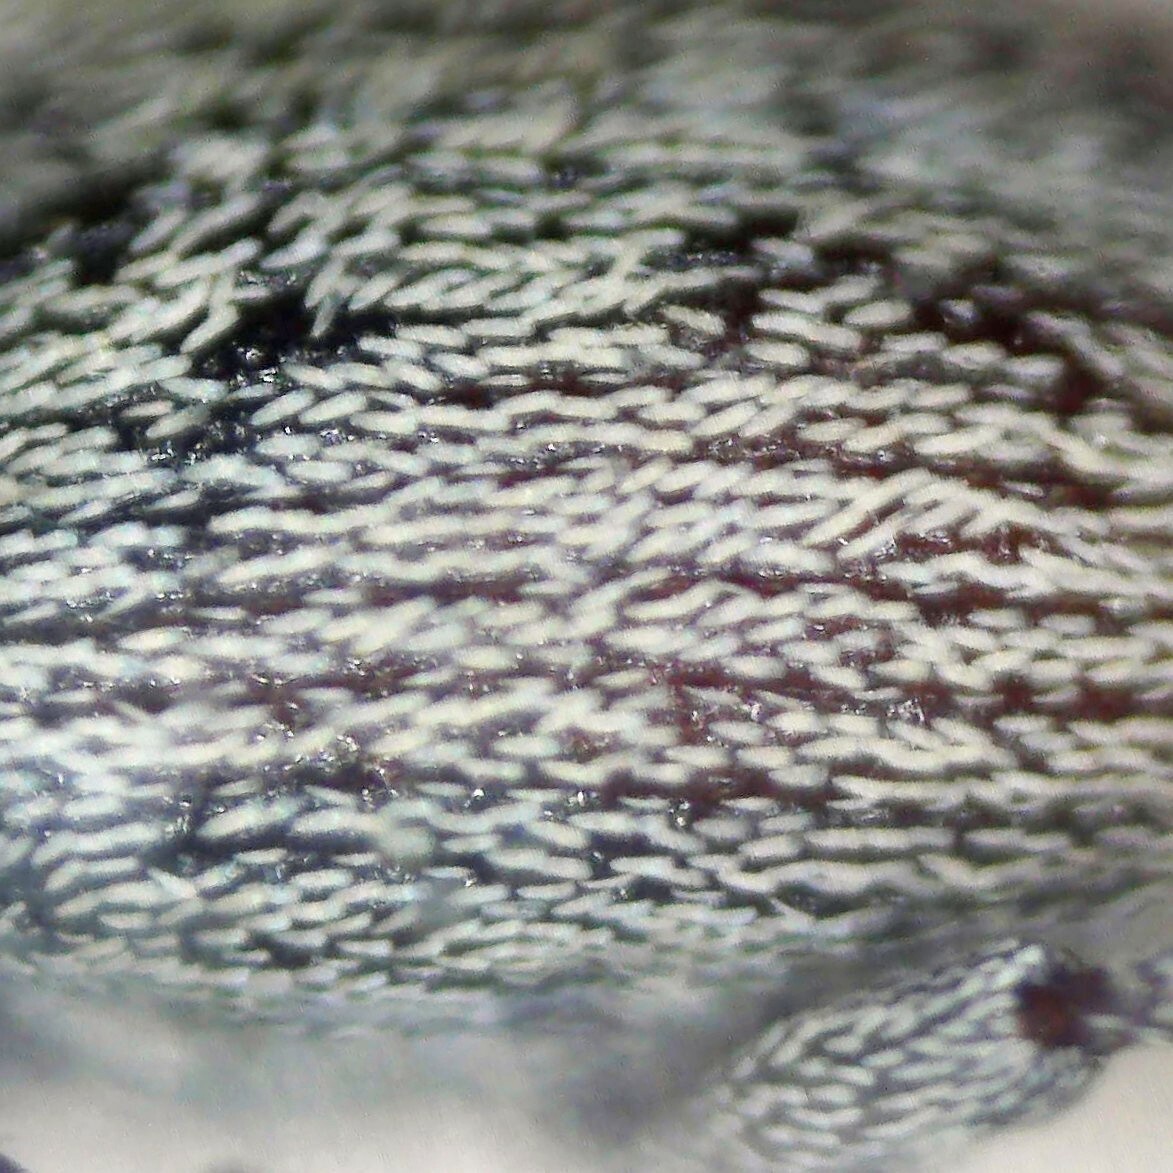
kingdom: Animalia
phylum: Arthropoda
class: Insecta
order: Coleoptera
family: Curculionidae
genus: Tychius
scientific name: Tychius stephensi
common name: Red clover seed weevil
